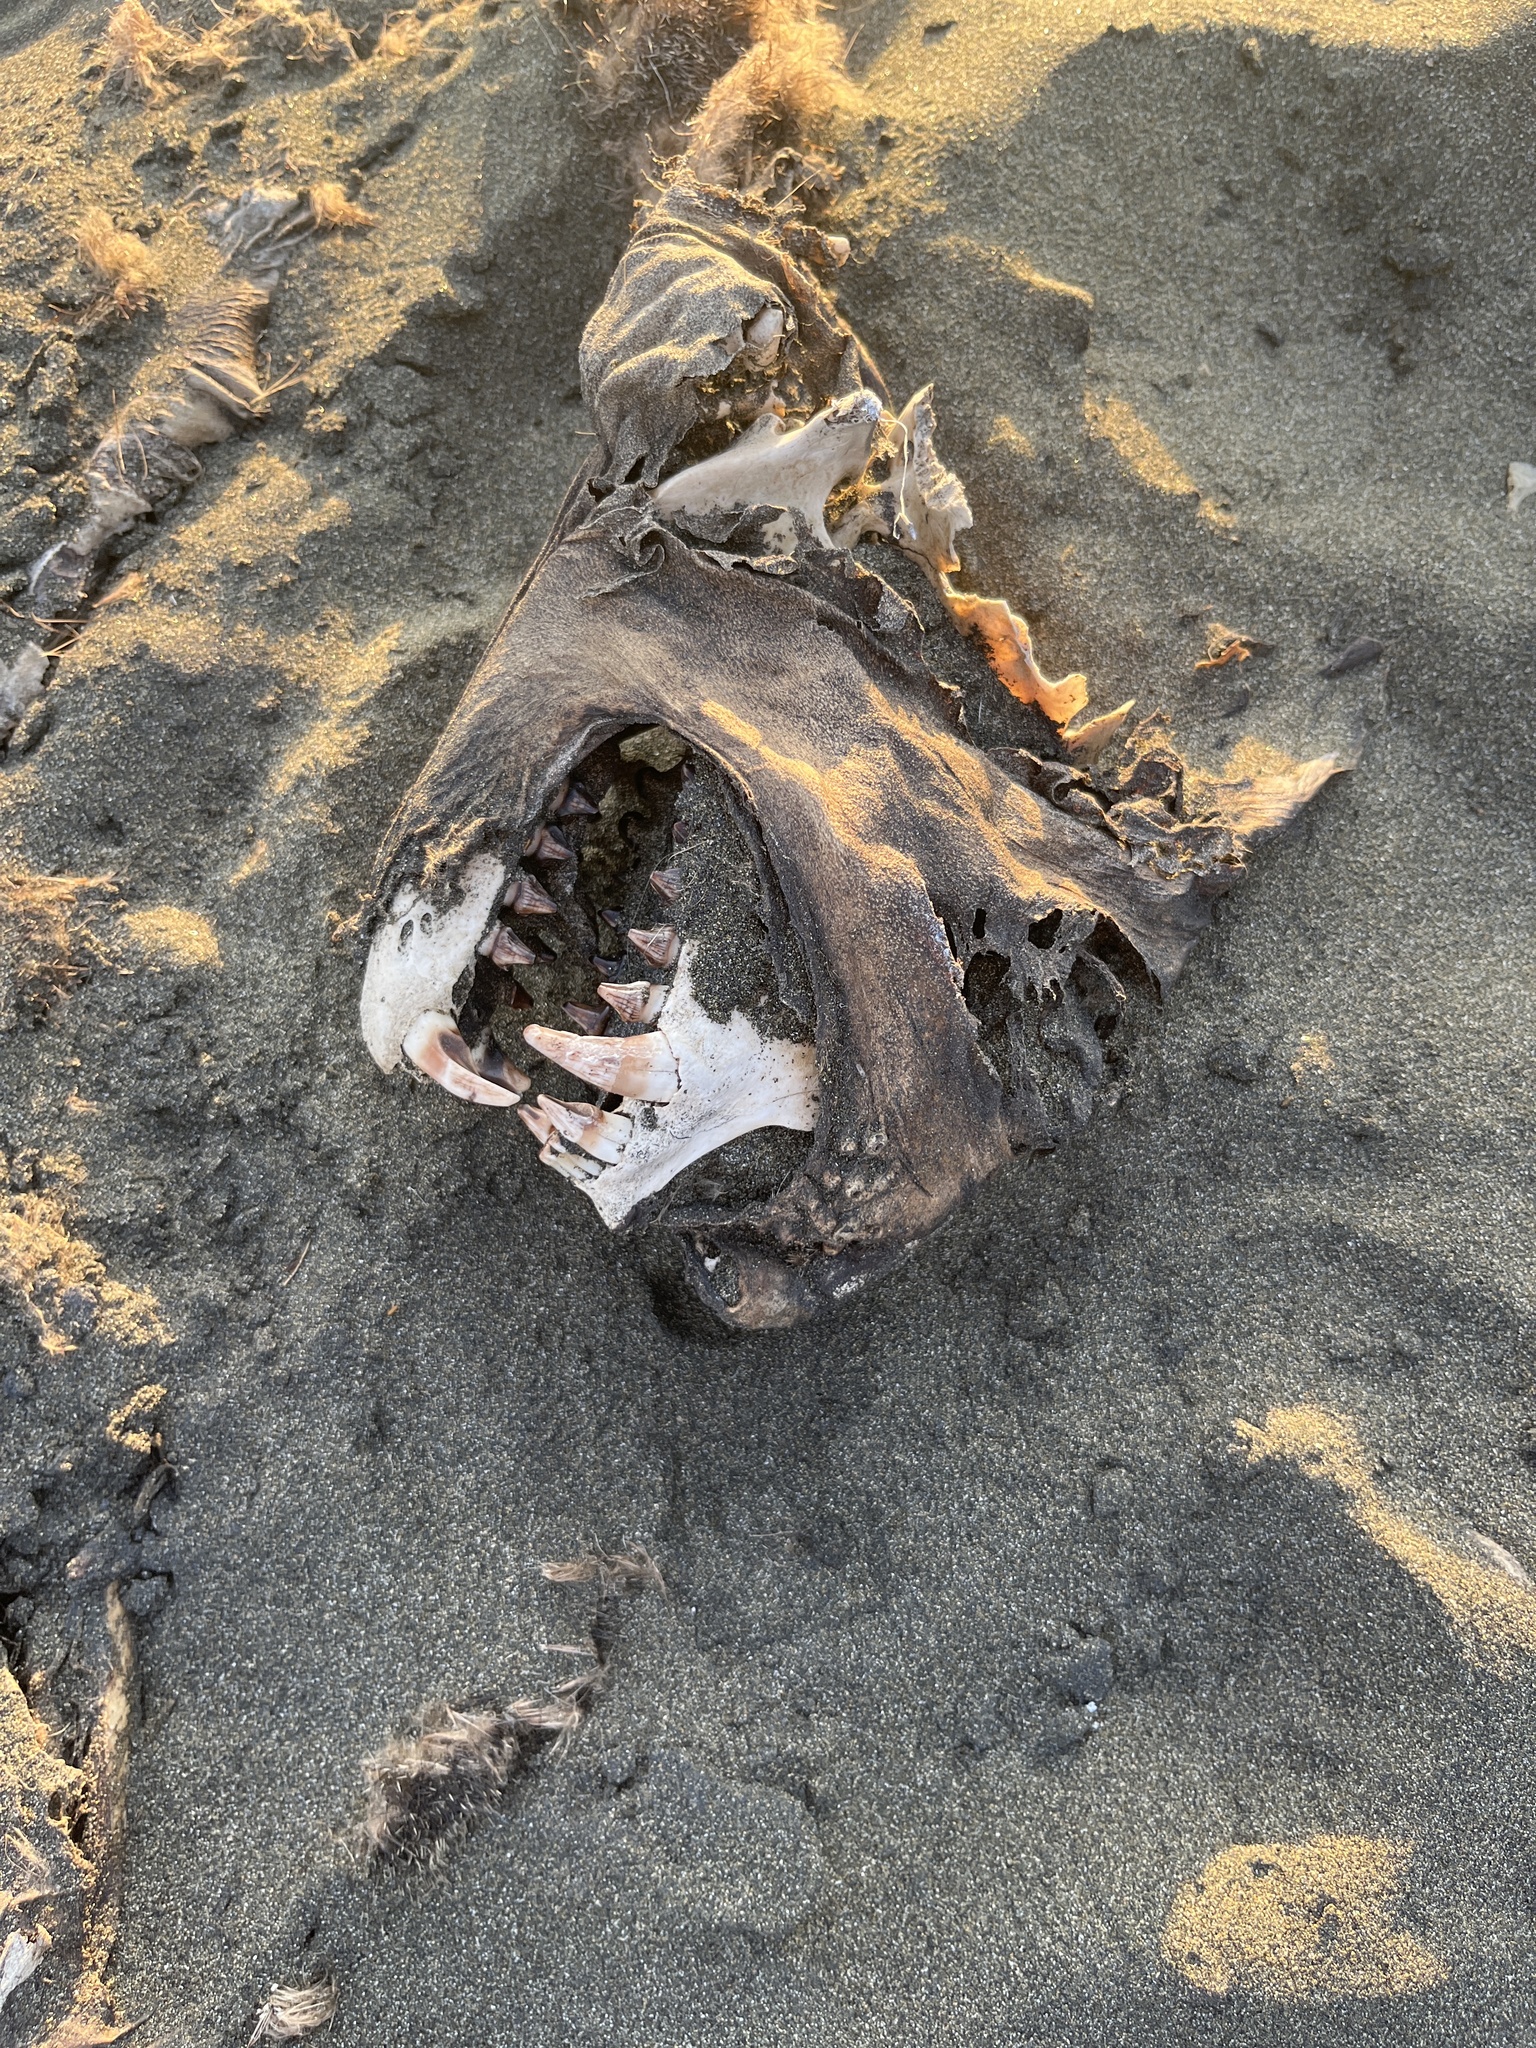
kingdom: Animalia
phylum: Chordata
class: Mammalia
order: Carnivora
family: Otariidae
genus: Arctocephalus
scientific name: Arctocephalus forsteri
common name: New zealand fur seal
